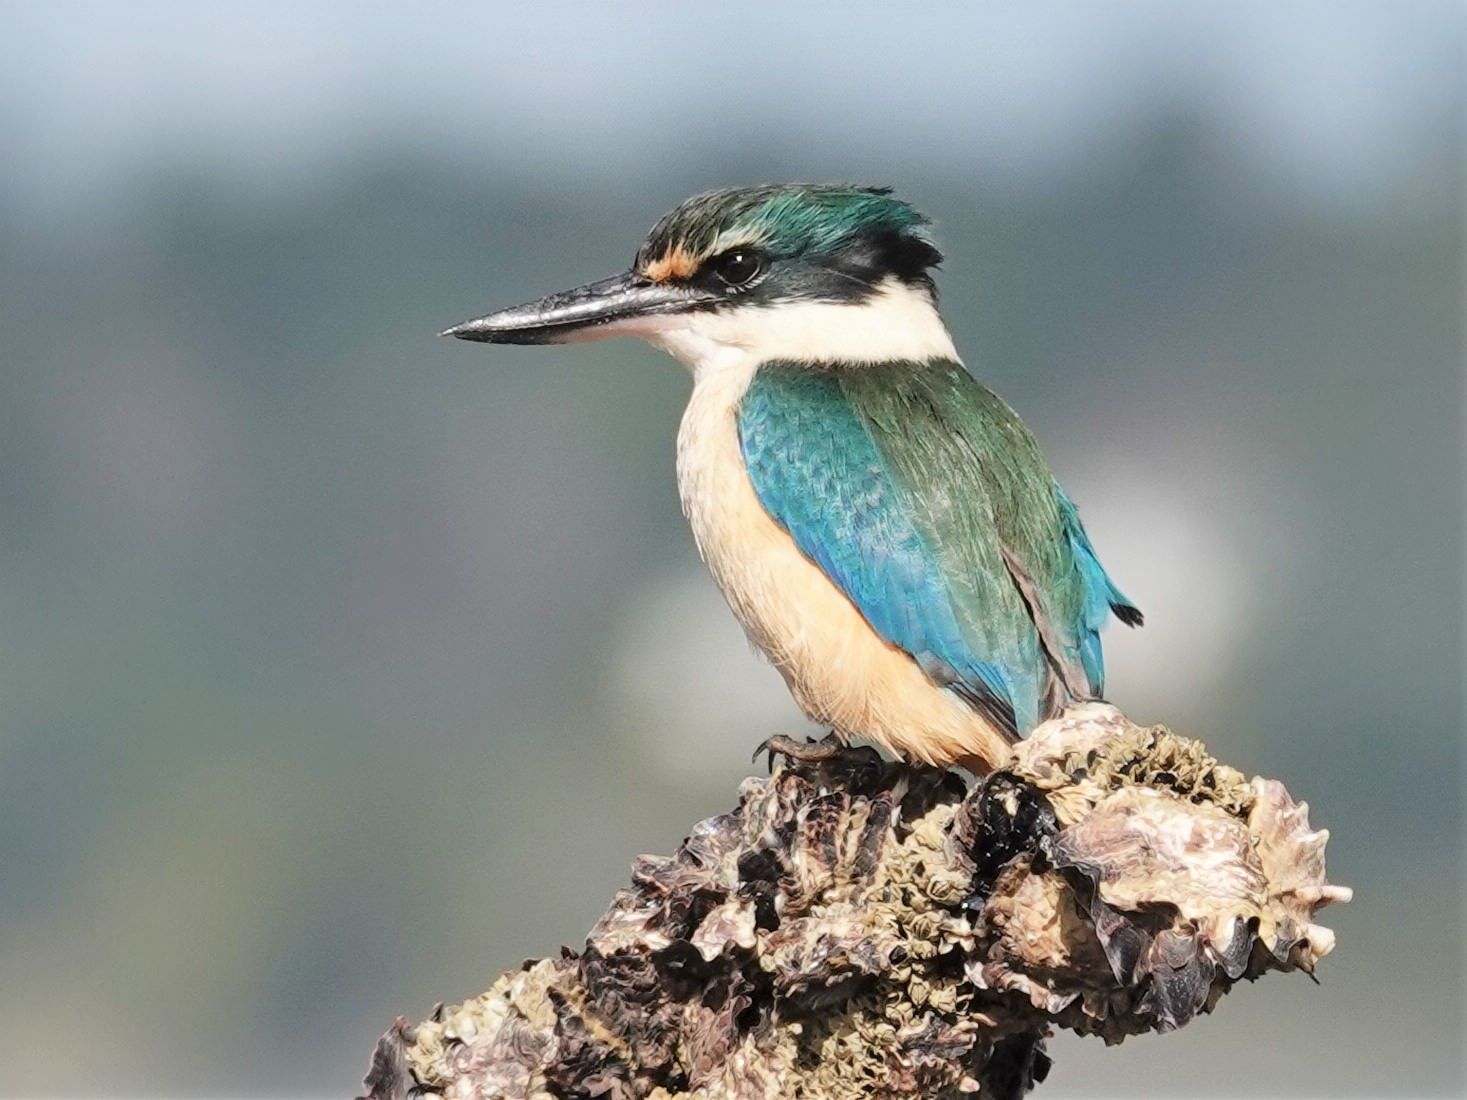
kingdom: Animalia
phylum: Chordata
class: Aves
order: Coraciiformes
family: Alcedinidae
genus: Todiramphus
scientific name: Todiramphus sanctus
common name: Sacred kingfisher
